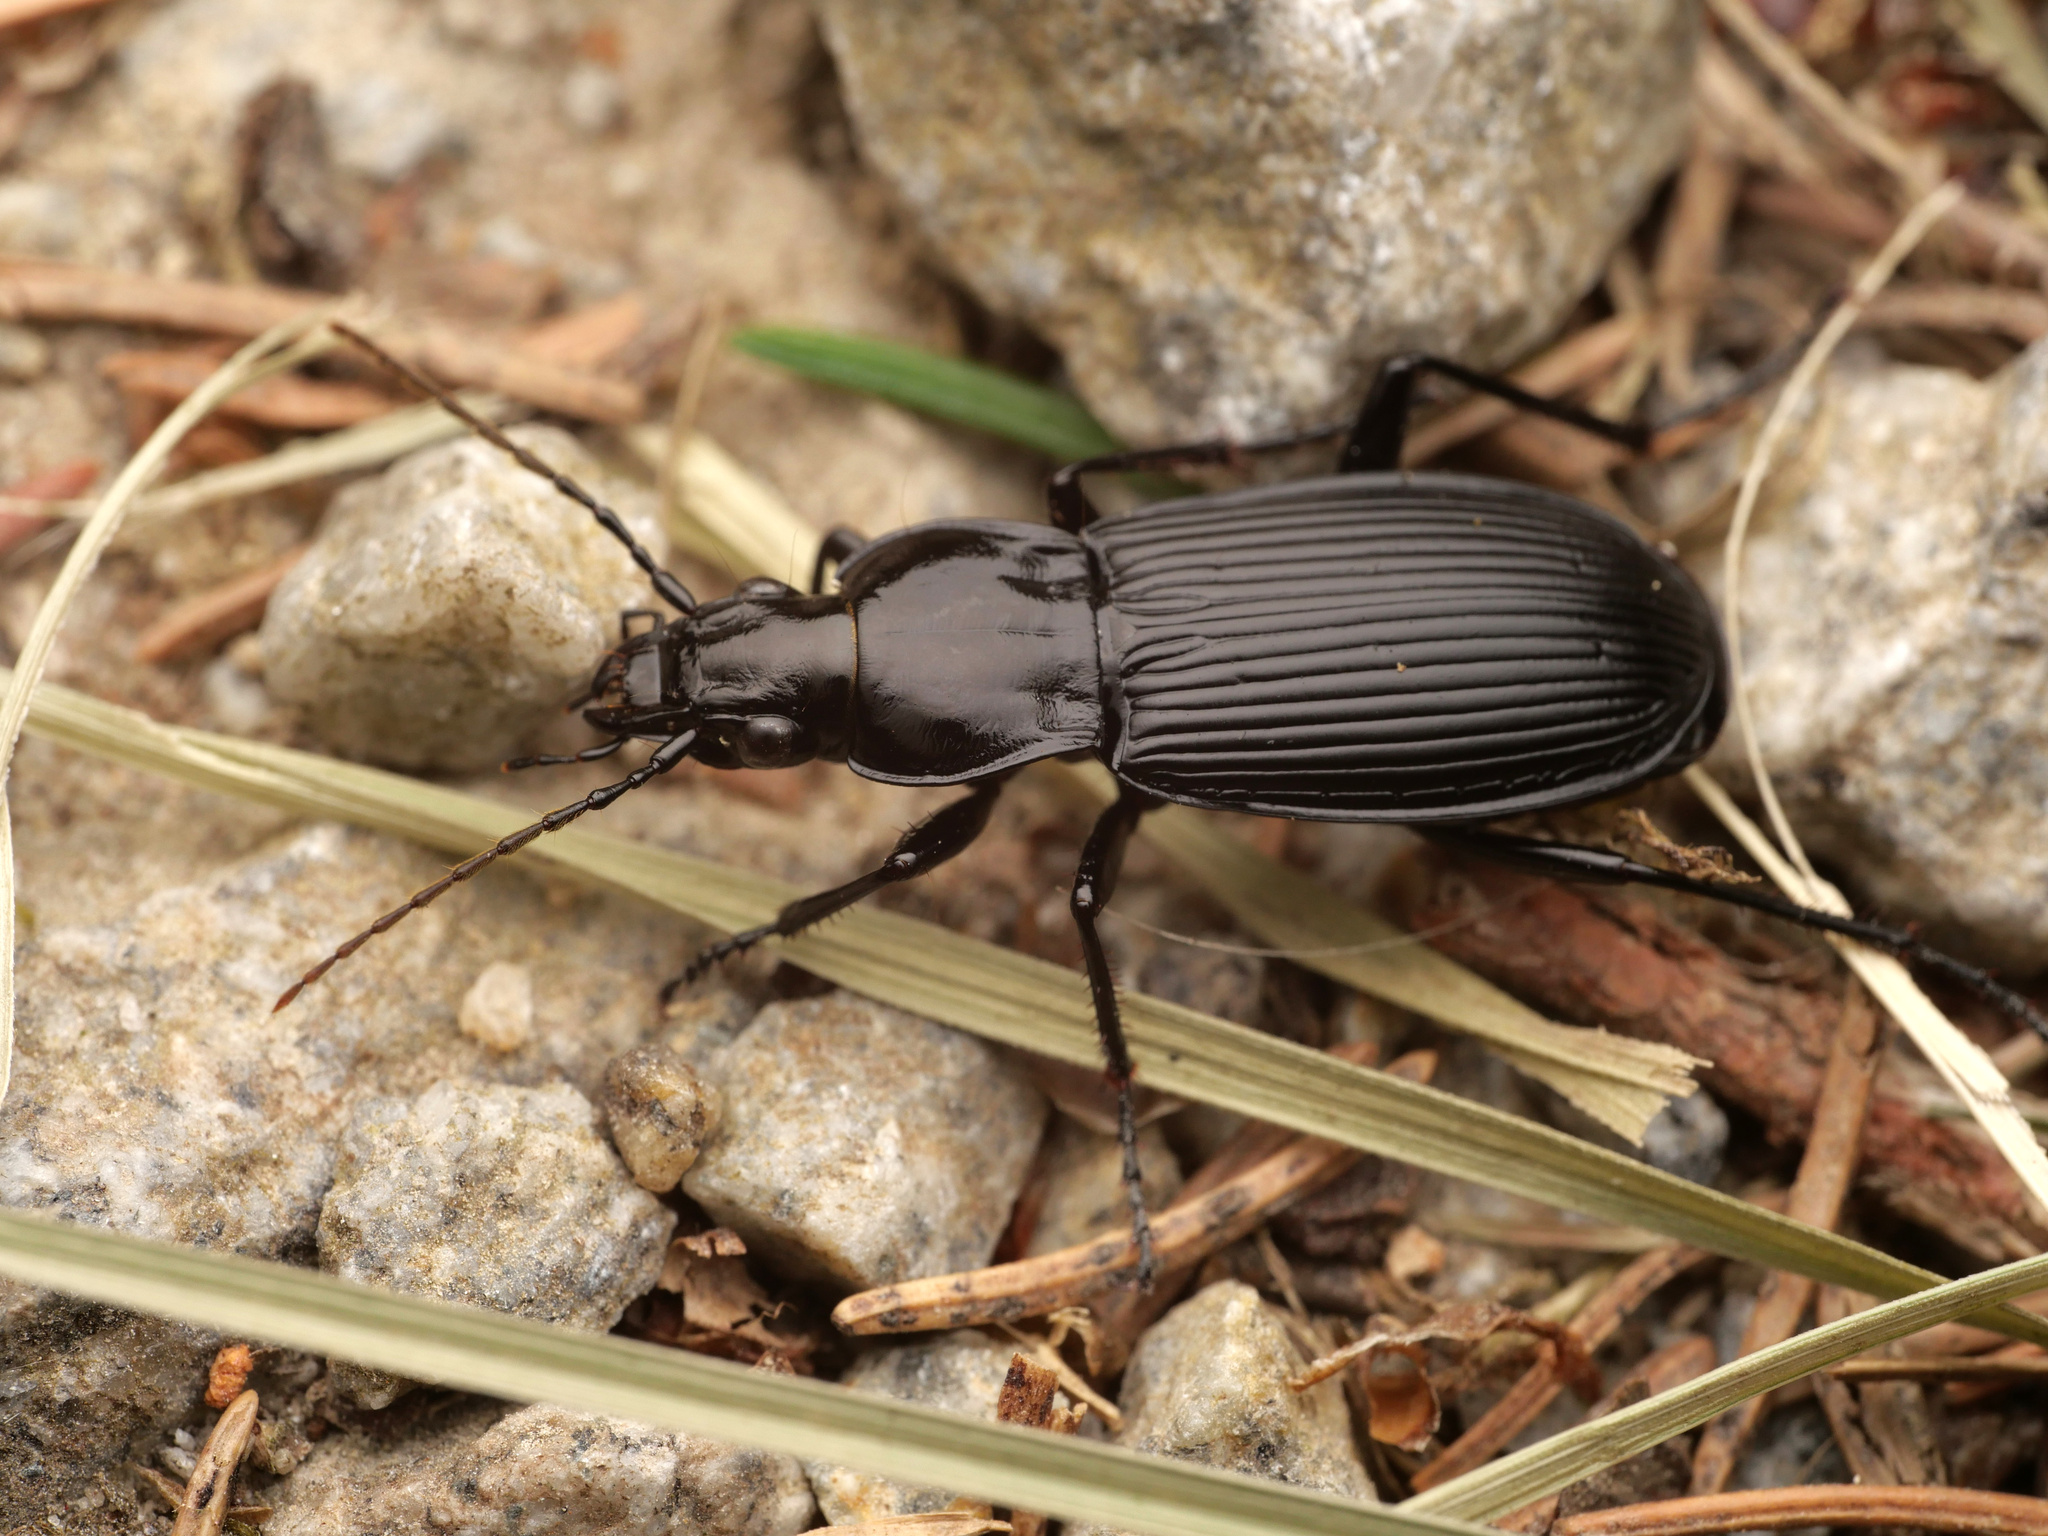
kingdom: Animalia
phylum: Arthropoda
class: Insecta
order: Coleoptera
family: Carabidae
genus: Pterostichus
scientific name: Pterostichus niger
